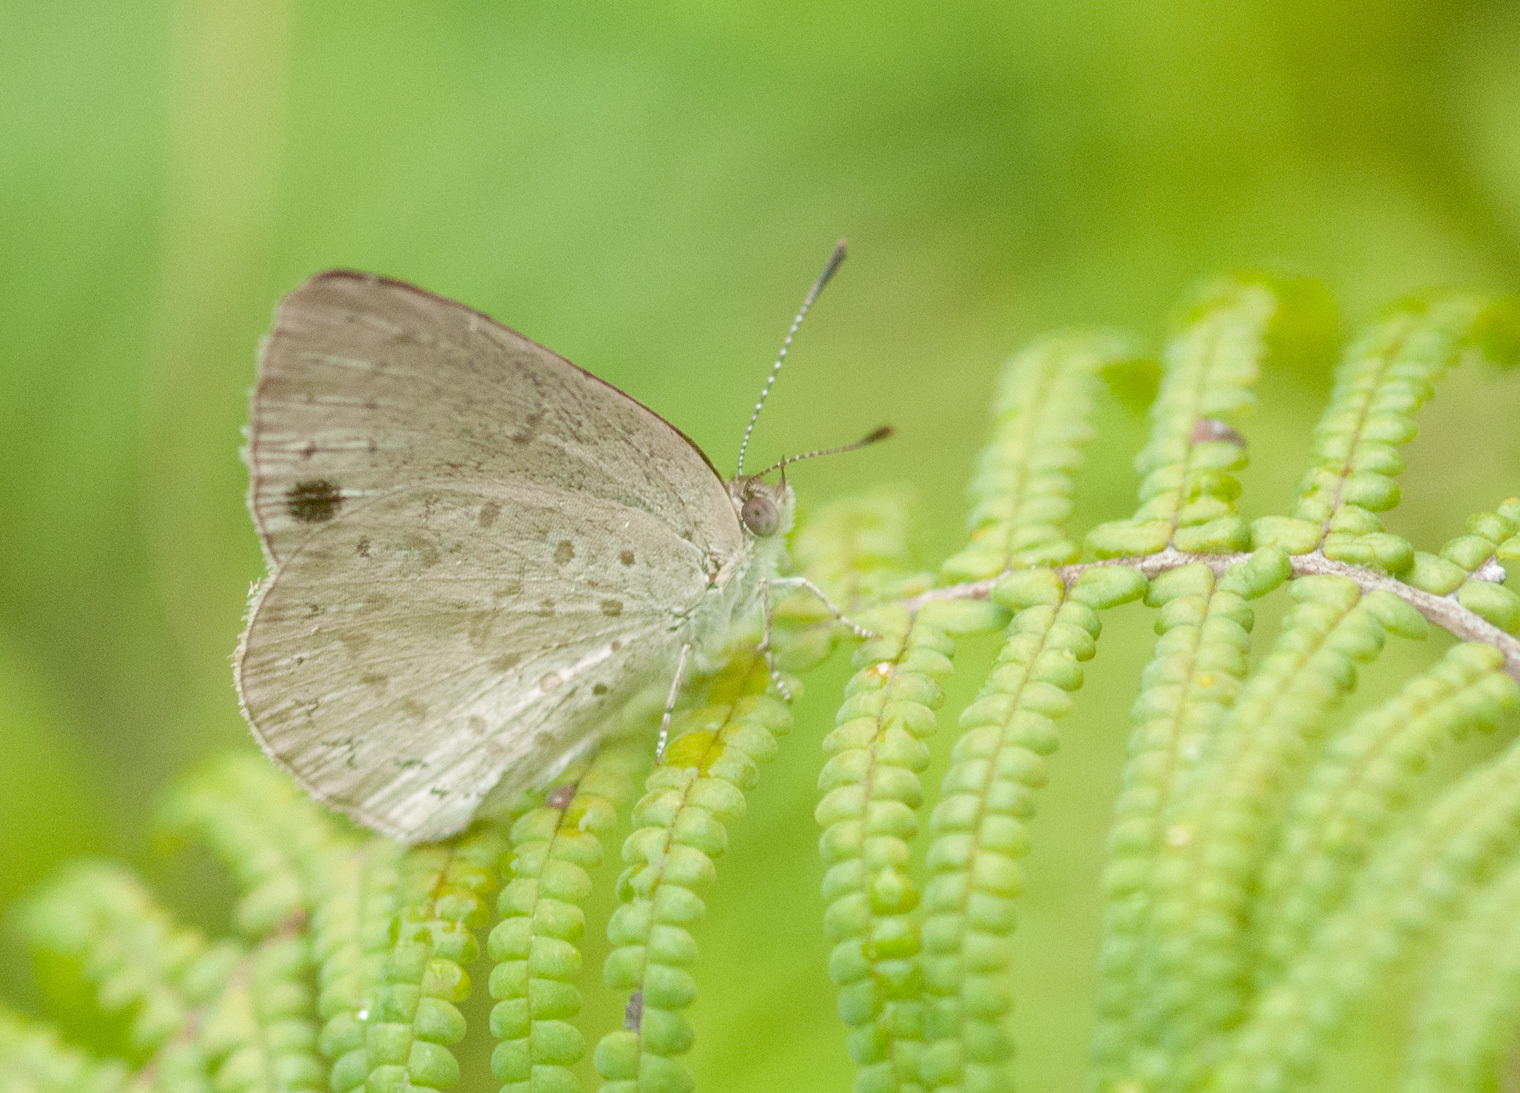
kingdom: Animalia
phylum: Arthropoda
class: Insecta
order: Lepidoptera
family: Lycaenidae
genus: Candalides
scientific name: Candalides
